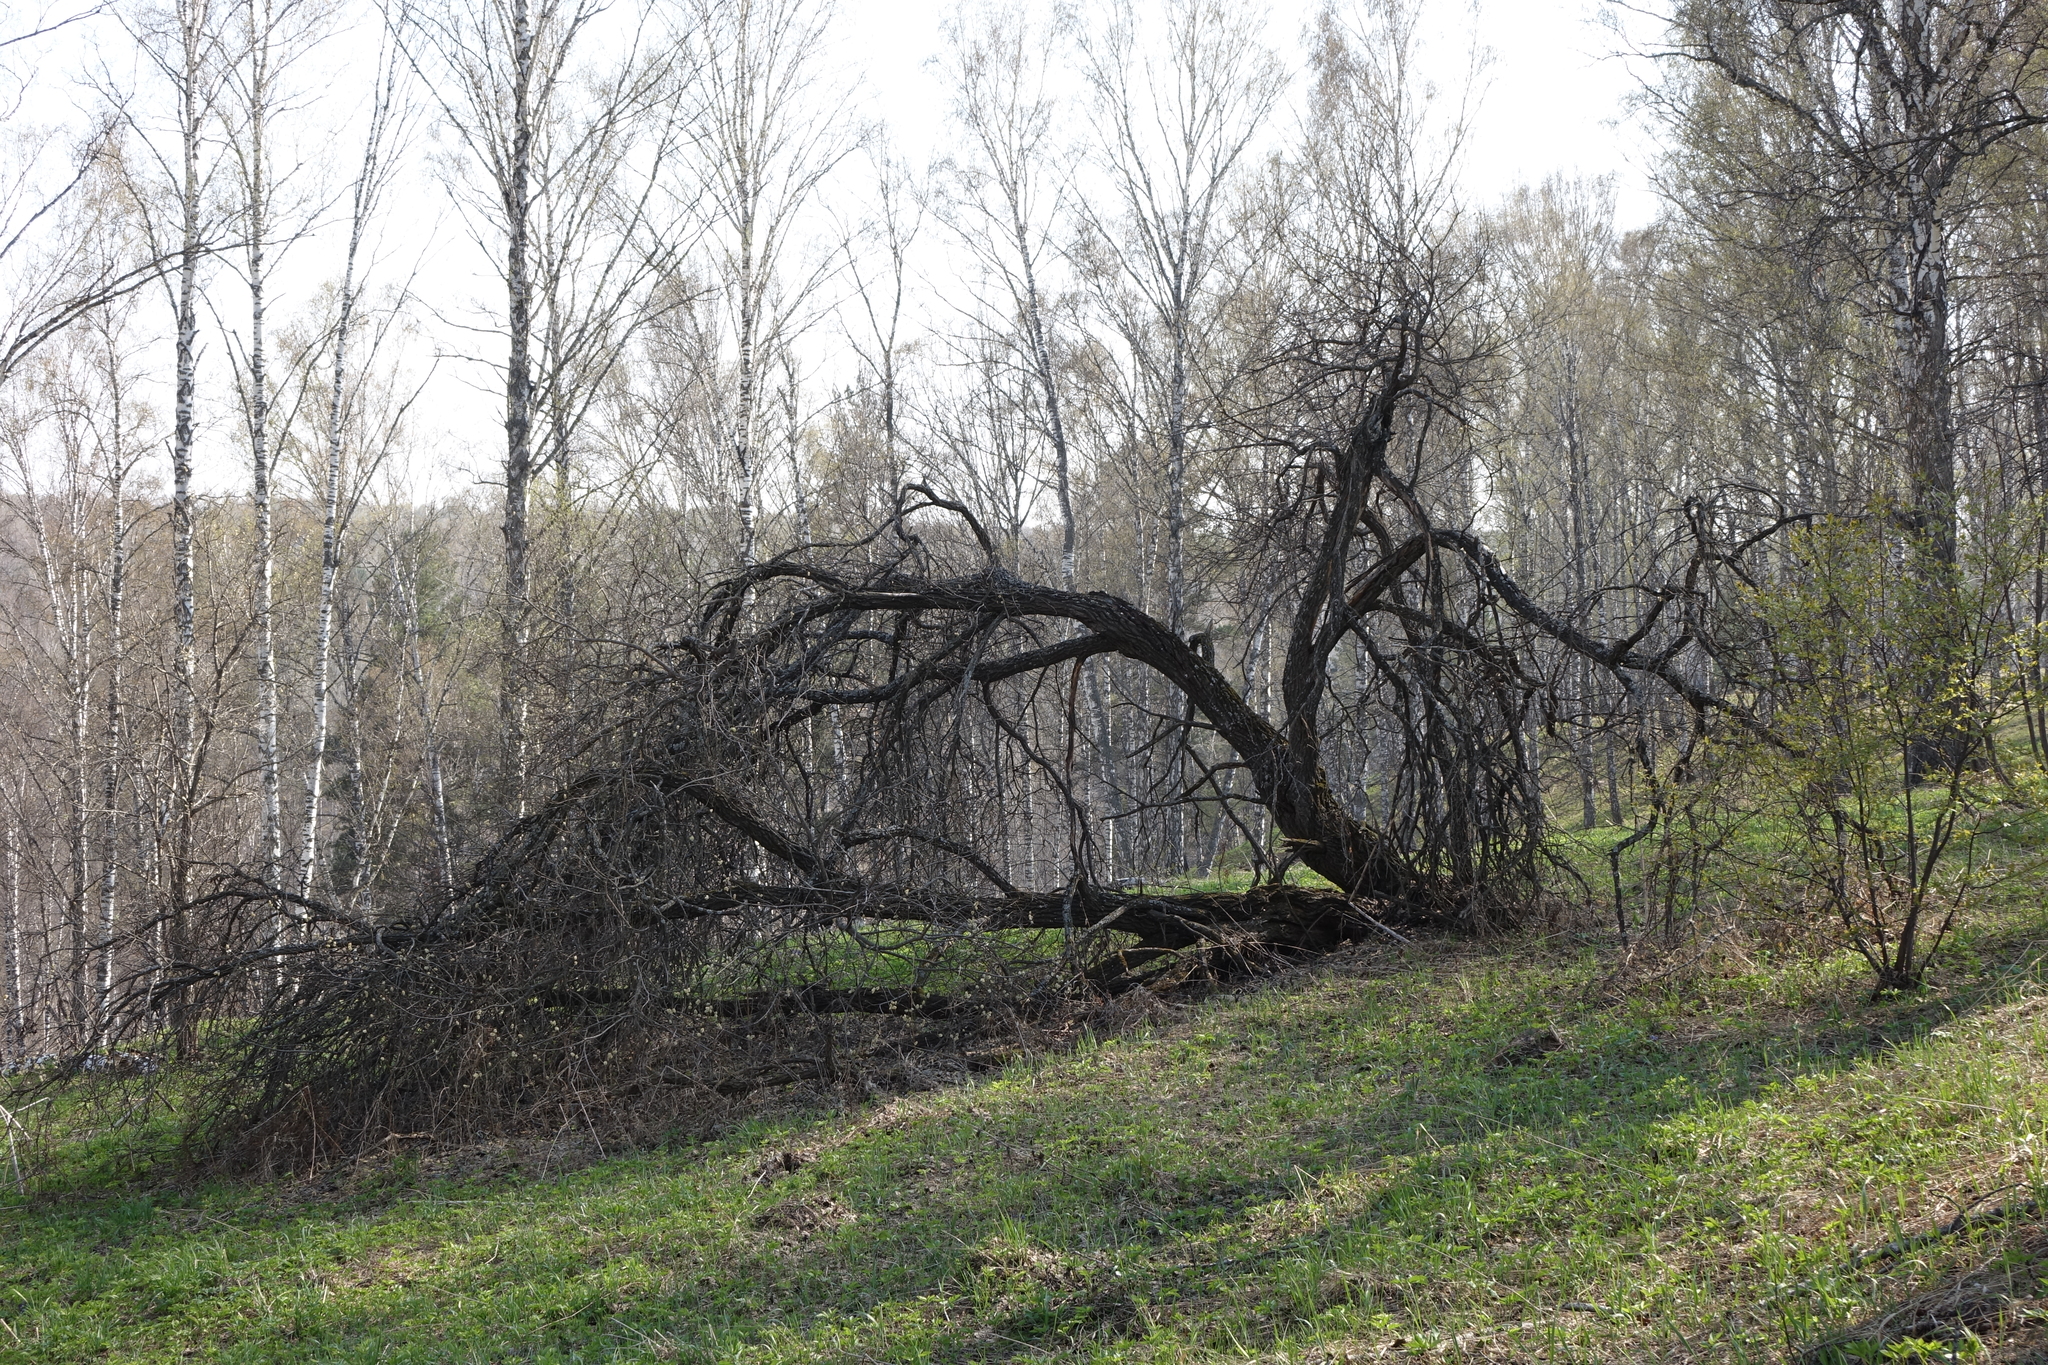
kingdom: Plantae
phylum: Tracheophyta
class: Magnoliopsida
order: Malpighiales
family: Salicaceae
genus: Salix
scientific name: Salix caprea
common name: Goat willow
